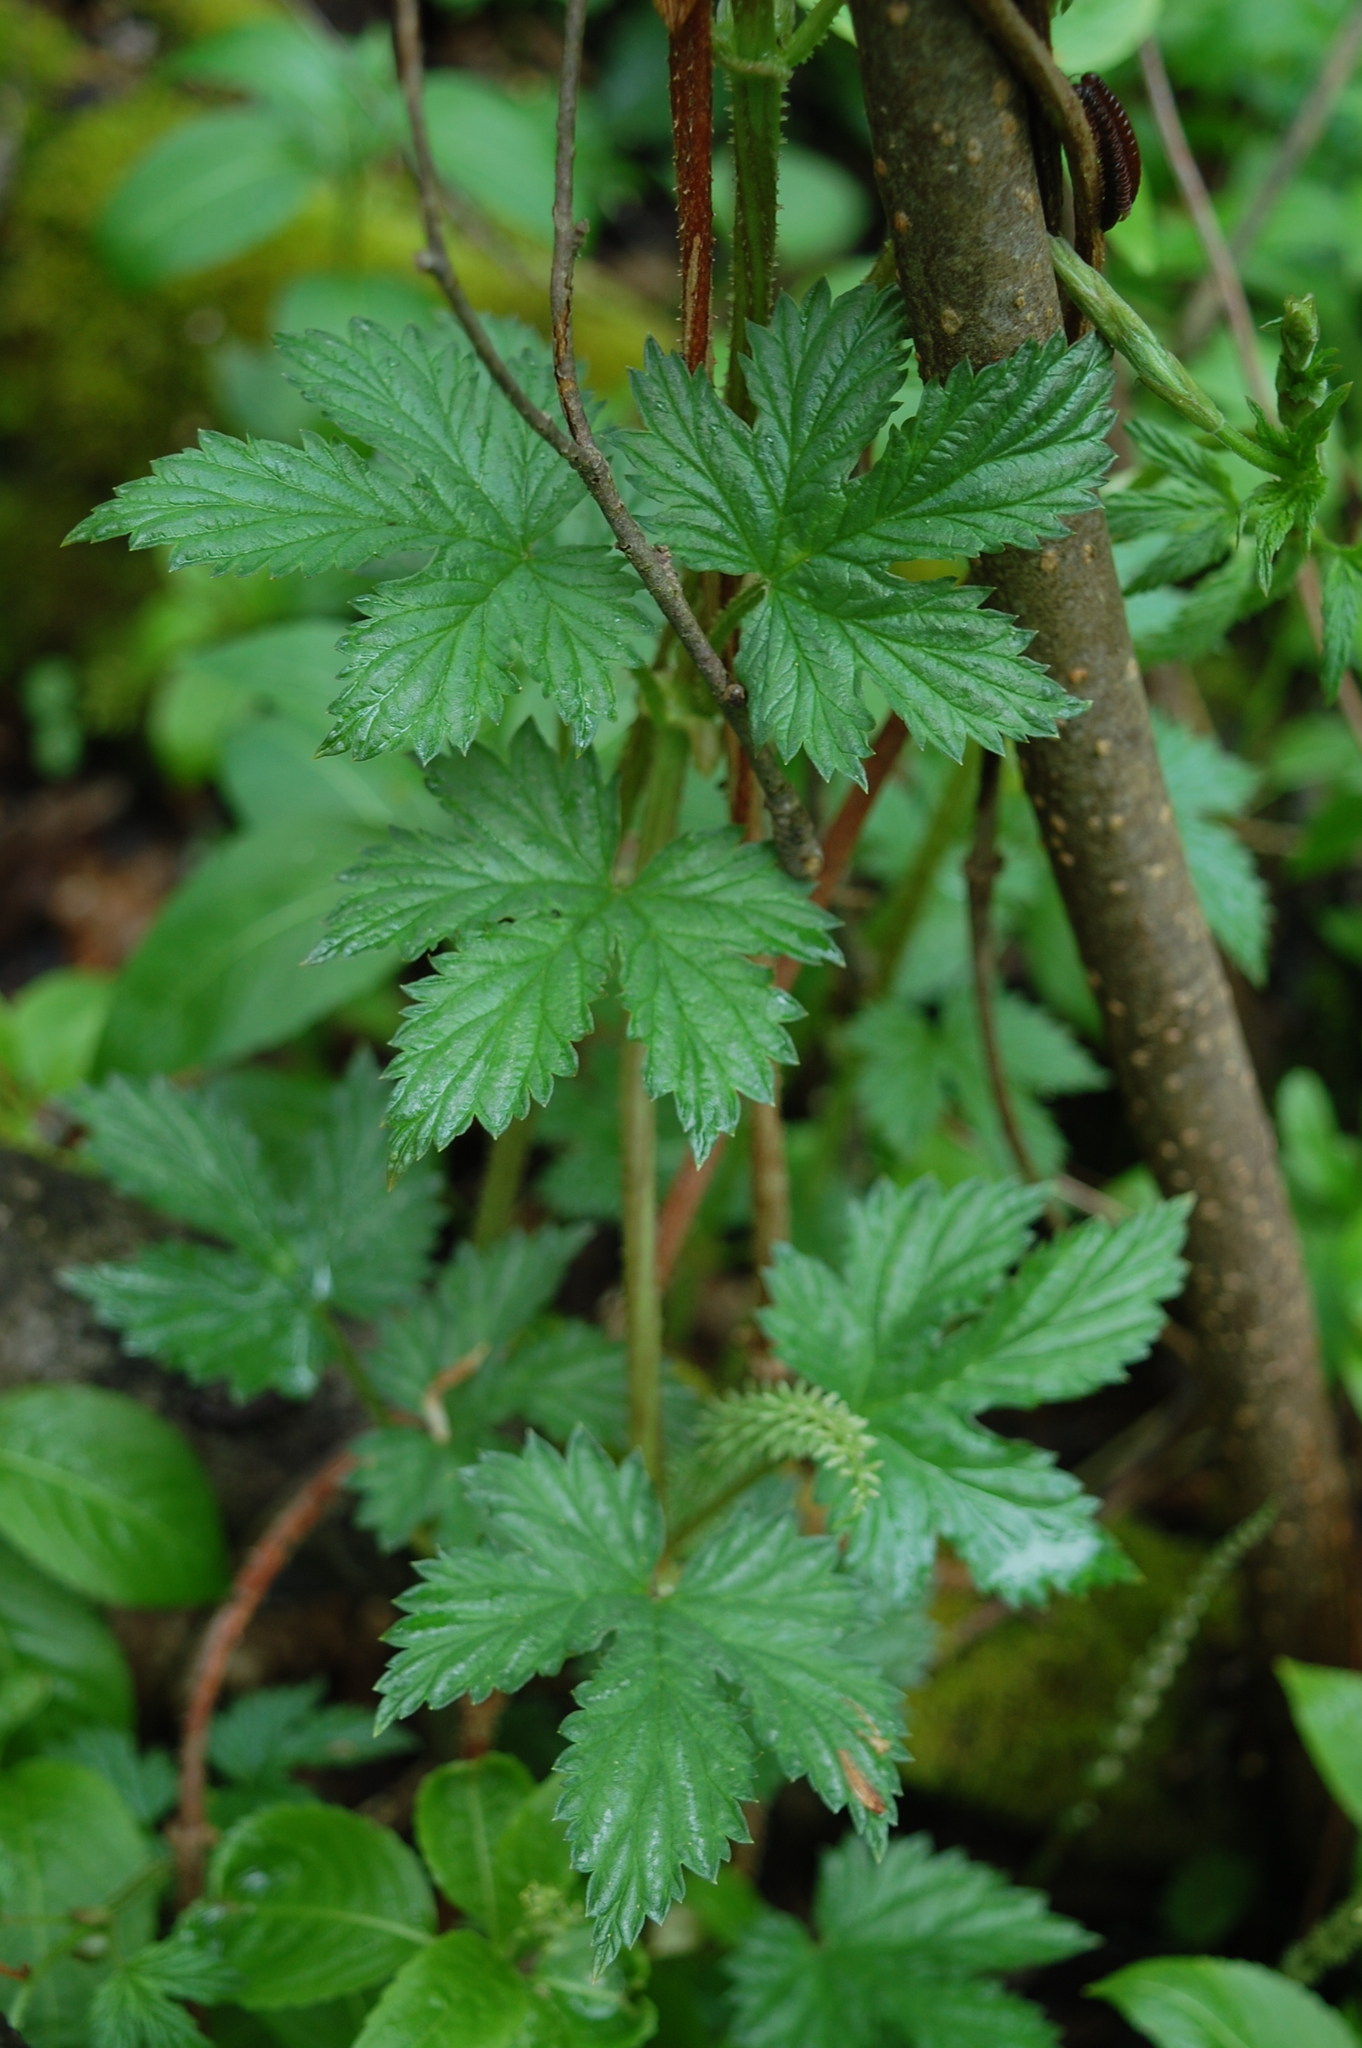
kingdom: Plantae
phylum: Tracheophyta
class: Magnoliopsida
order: Rosales
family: Cannabaceae
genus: Humulus
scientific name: Humulus lupulus
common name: Hop
